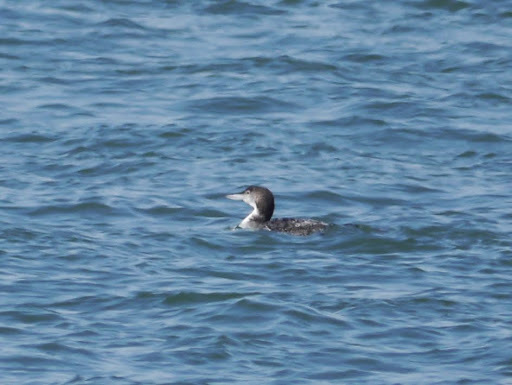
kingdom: Animalia
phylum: Chordata
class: Aves
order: Gaviiformes
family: Gaviidae
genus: Gavia
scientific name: Gavia immer
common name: Common loon
